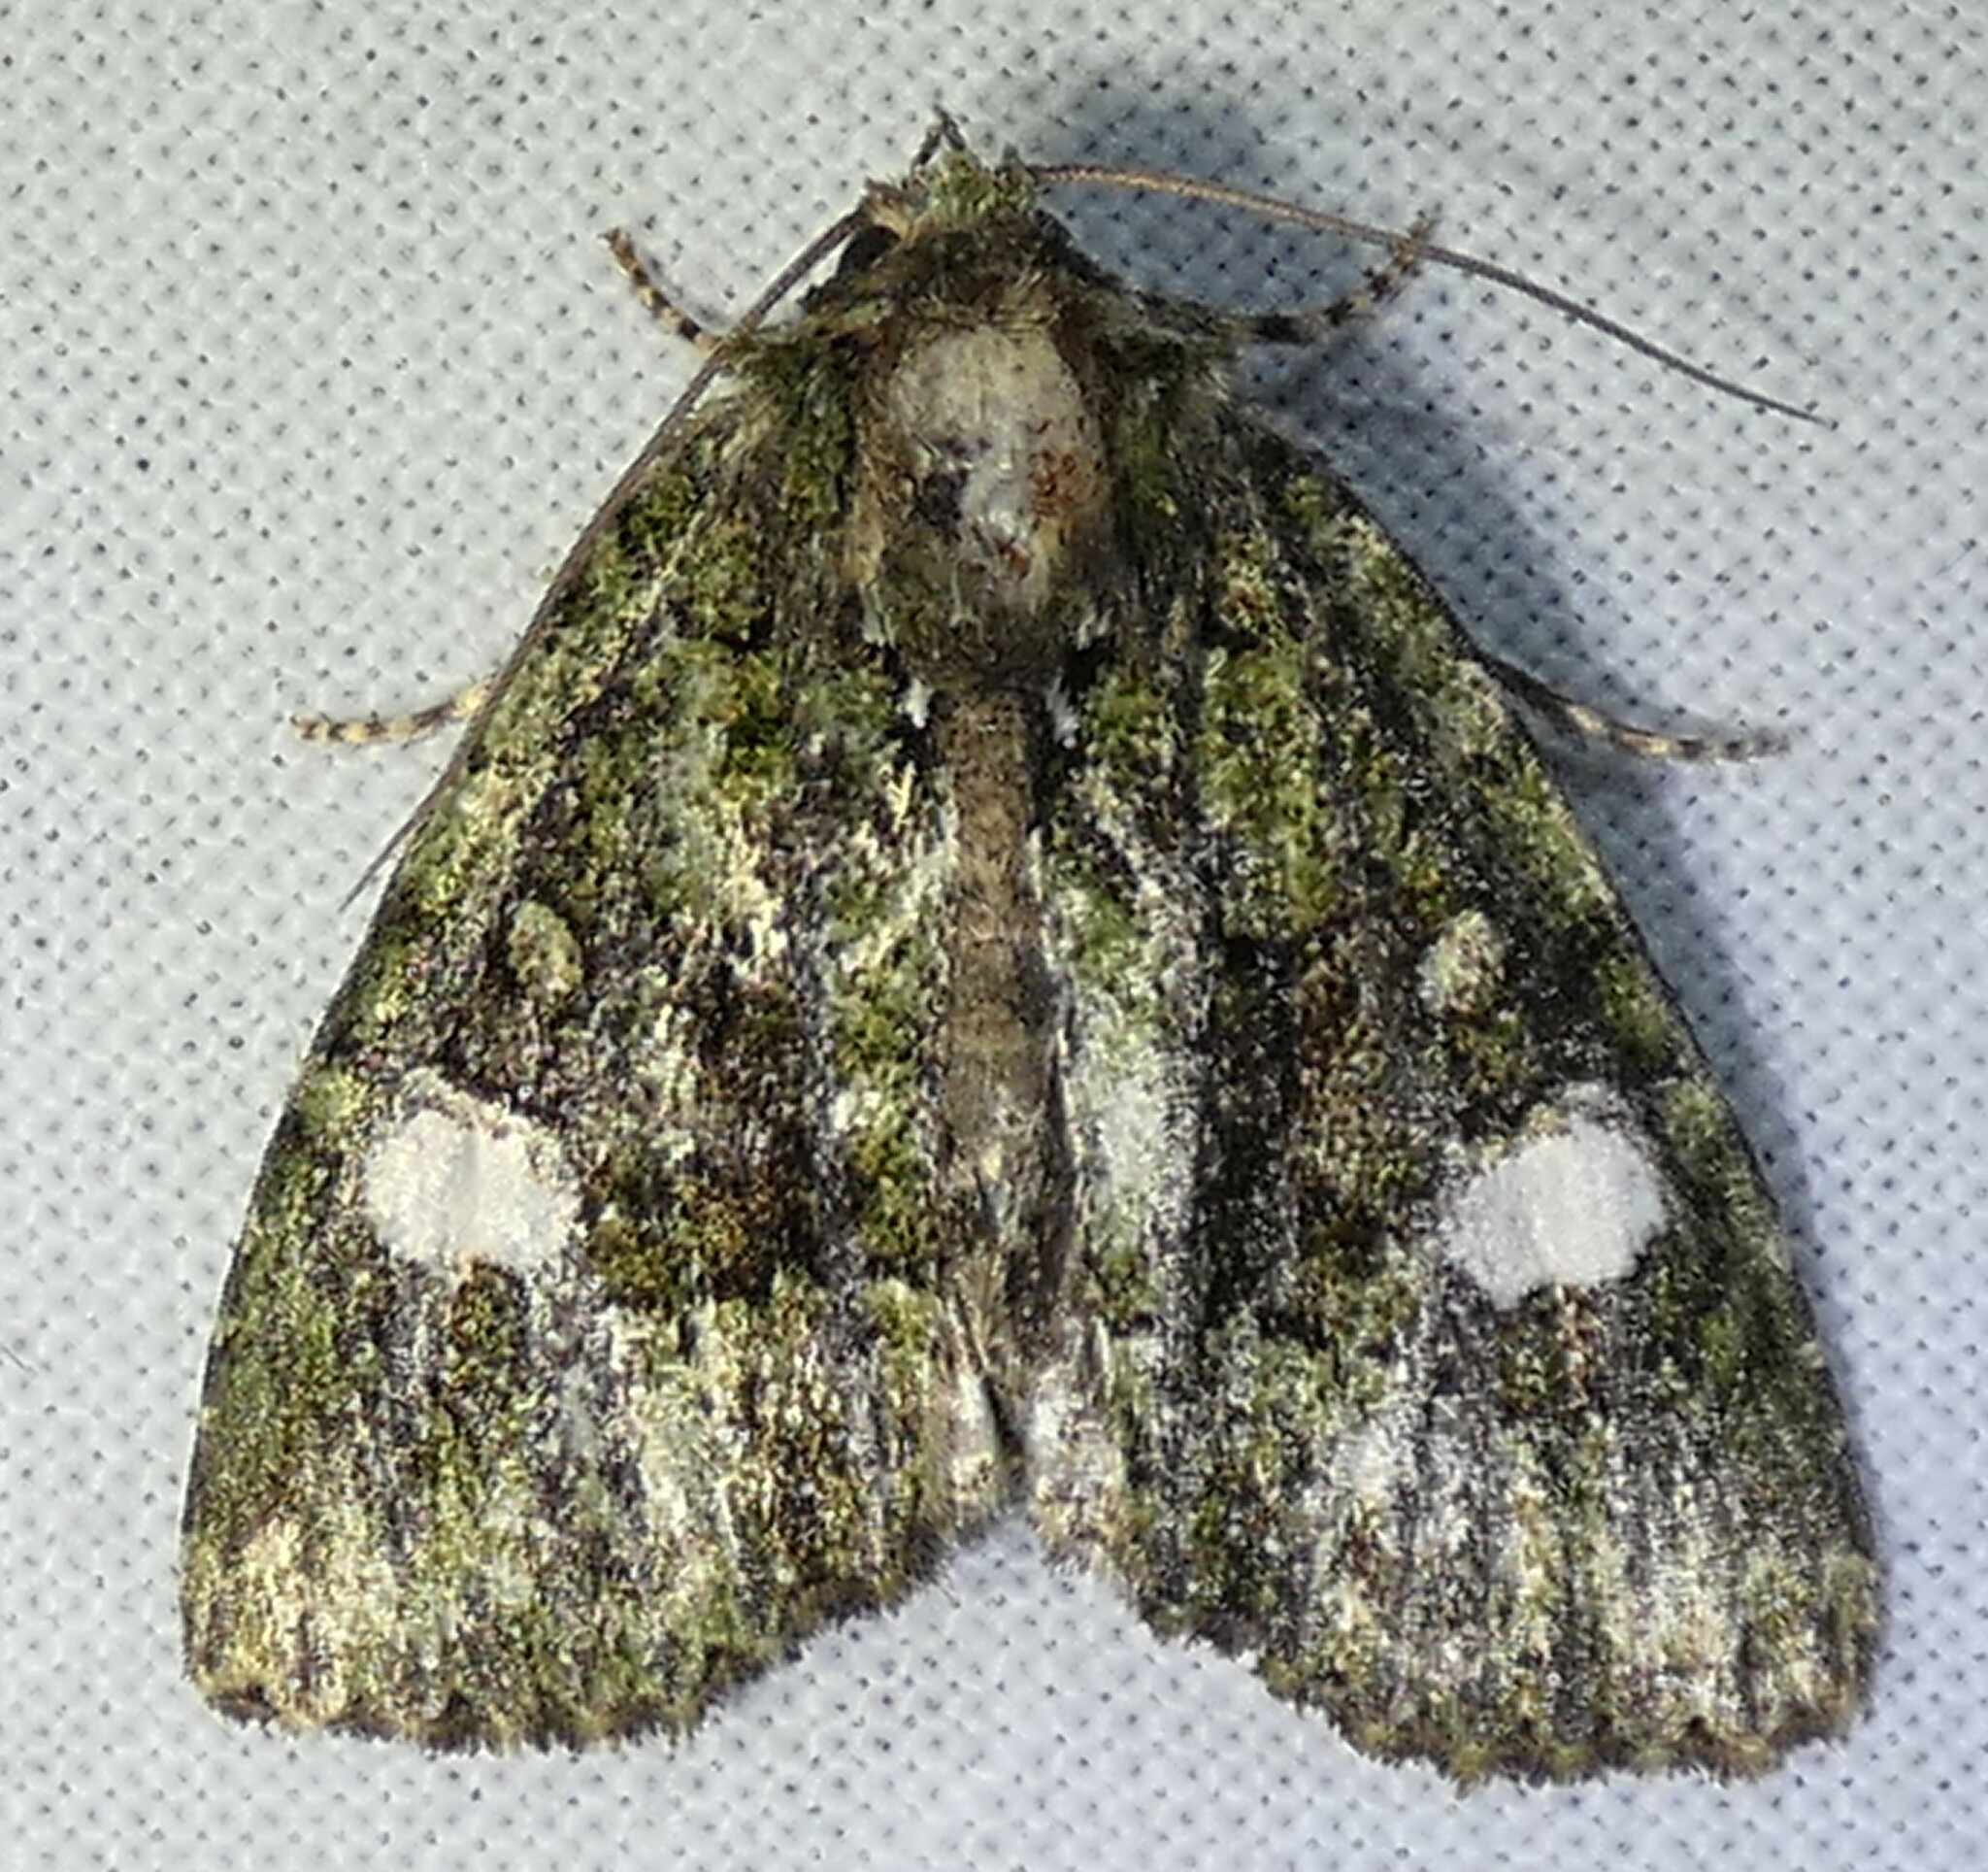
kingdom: Animalia
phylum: Arthropoda
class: Insecta
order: Lepidoptera
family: Noctuidae
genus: Phosphila
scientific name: Phosphila miselioides
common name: Spotted phosphila moth
